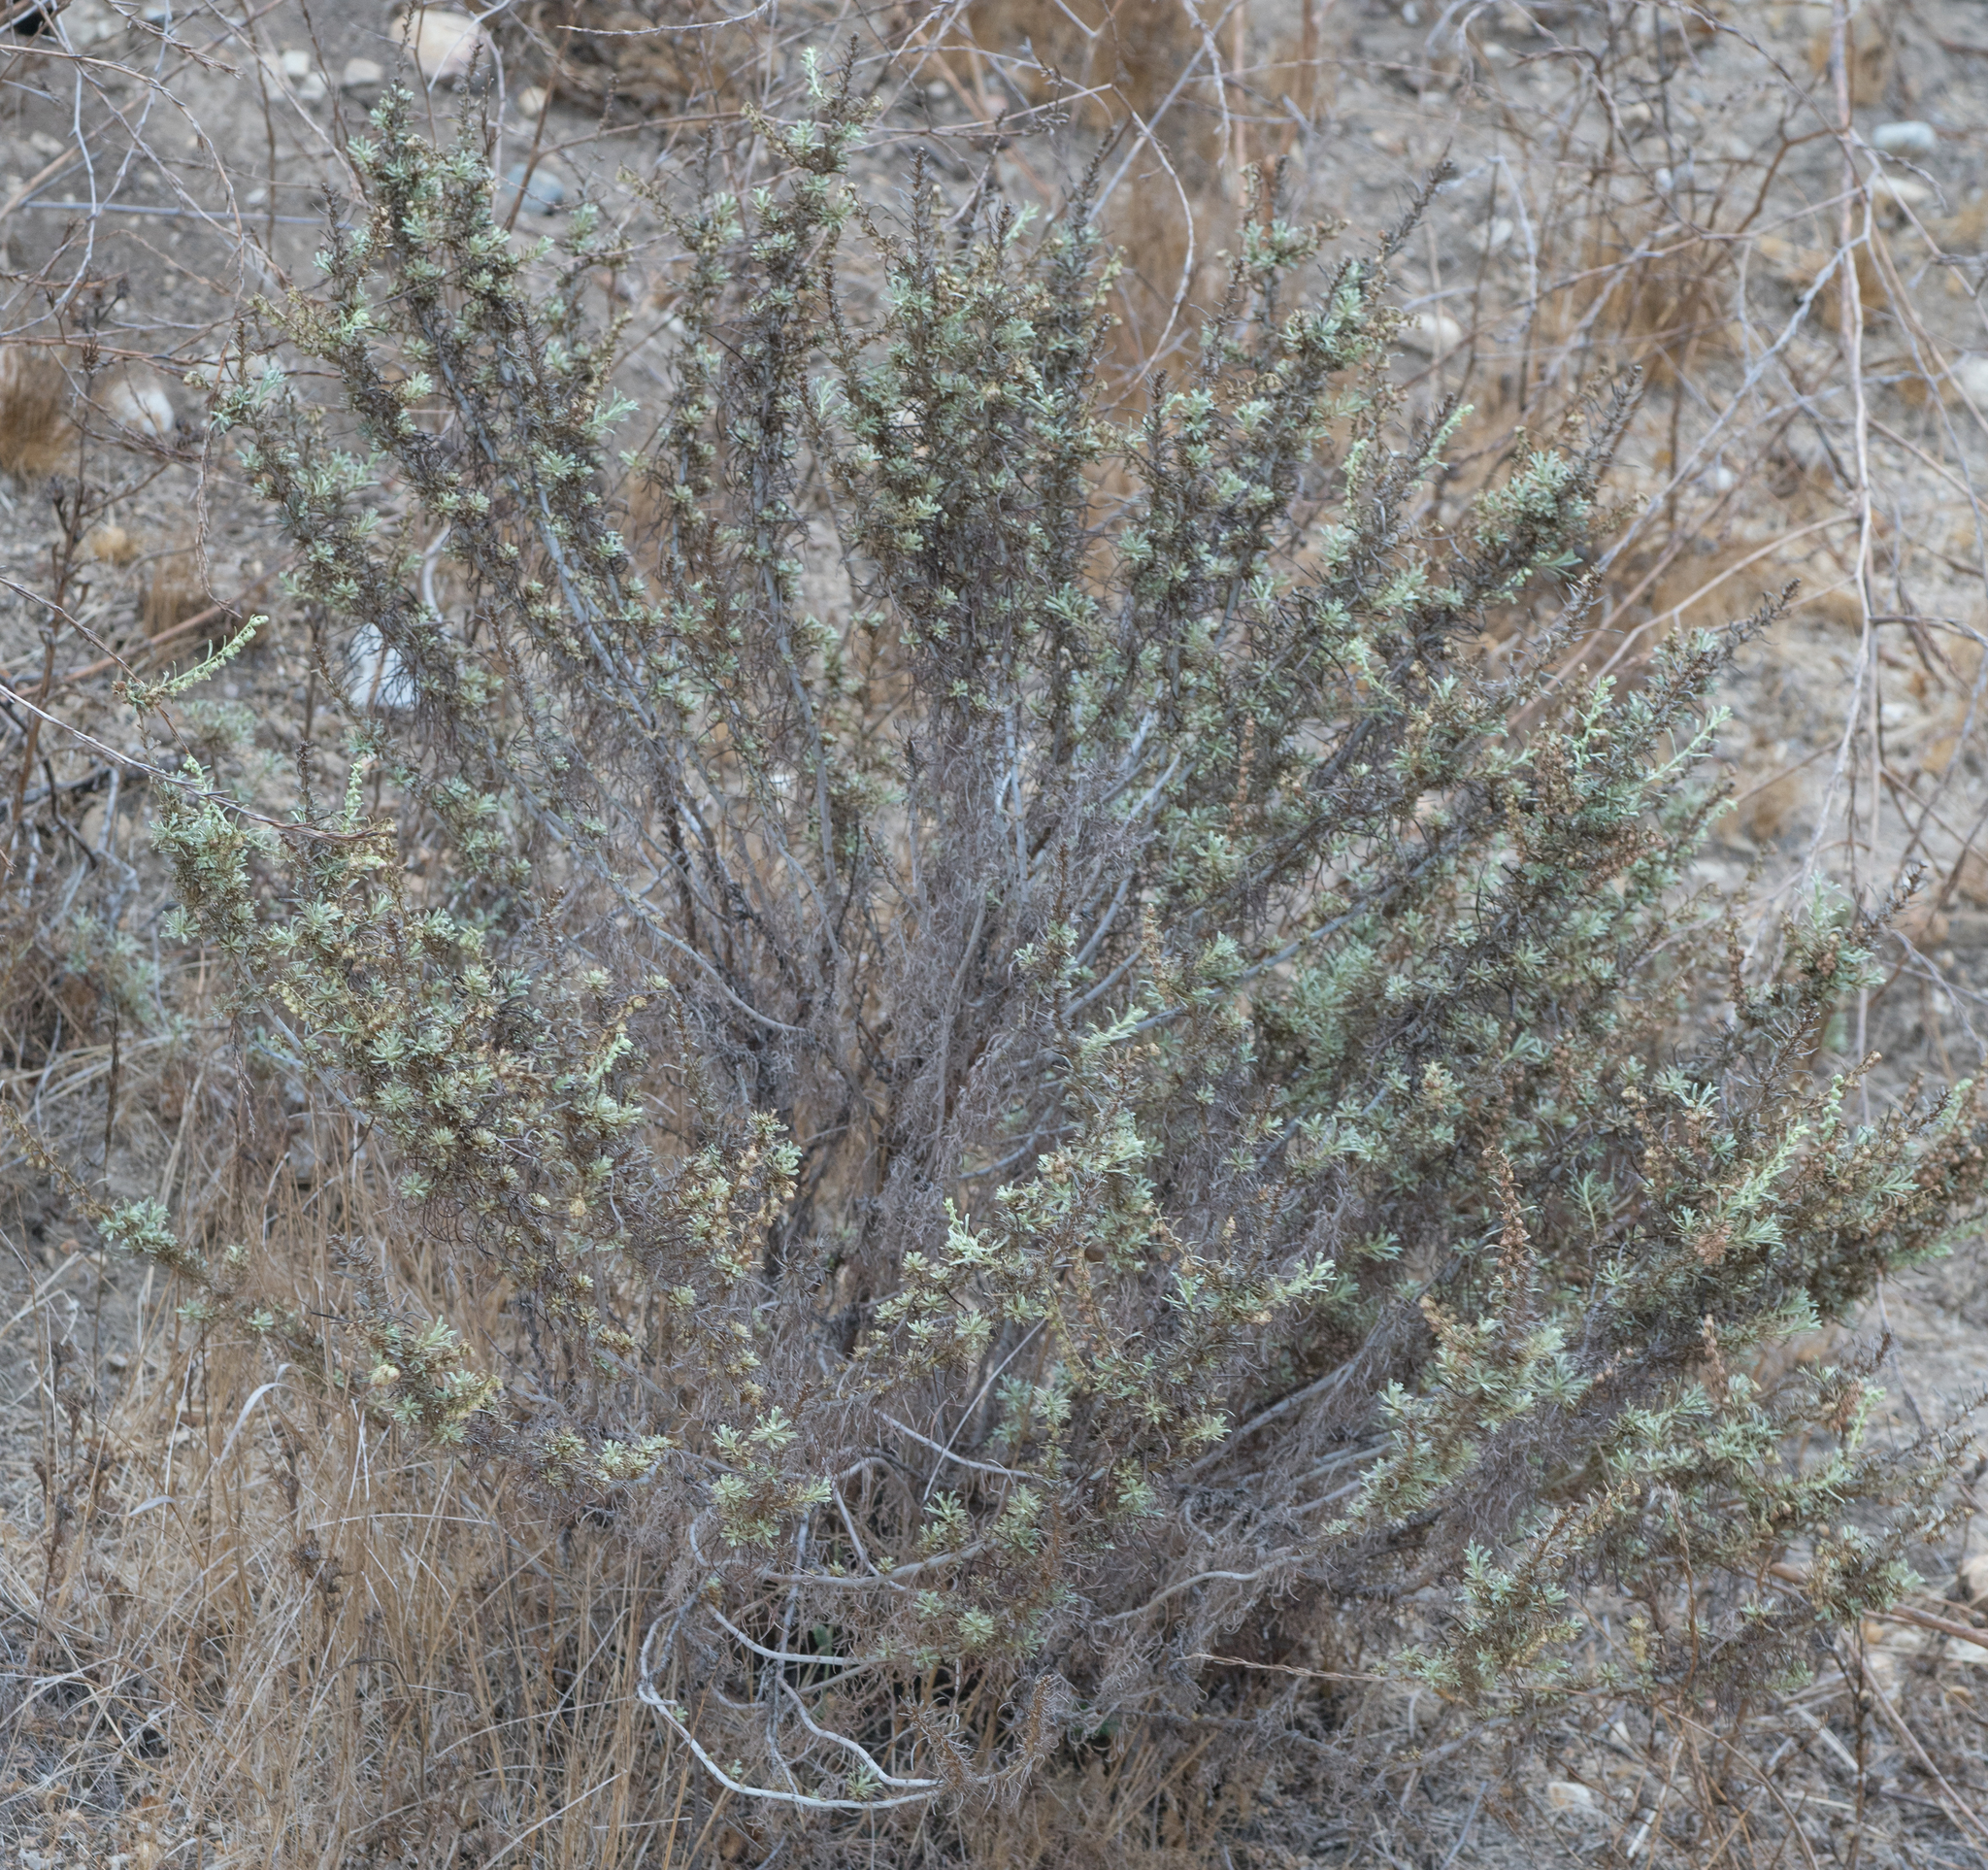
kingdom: Plantae
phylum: Tracheophyta
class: Magnoliopsida
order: Asterales
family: Asteraceae
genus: Artemisia
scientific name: Artemisia californica
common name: California sagebrush
